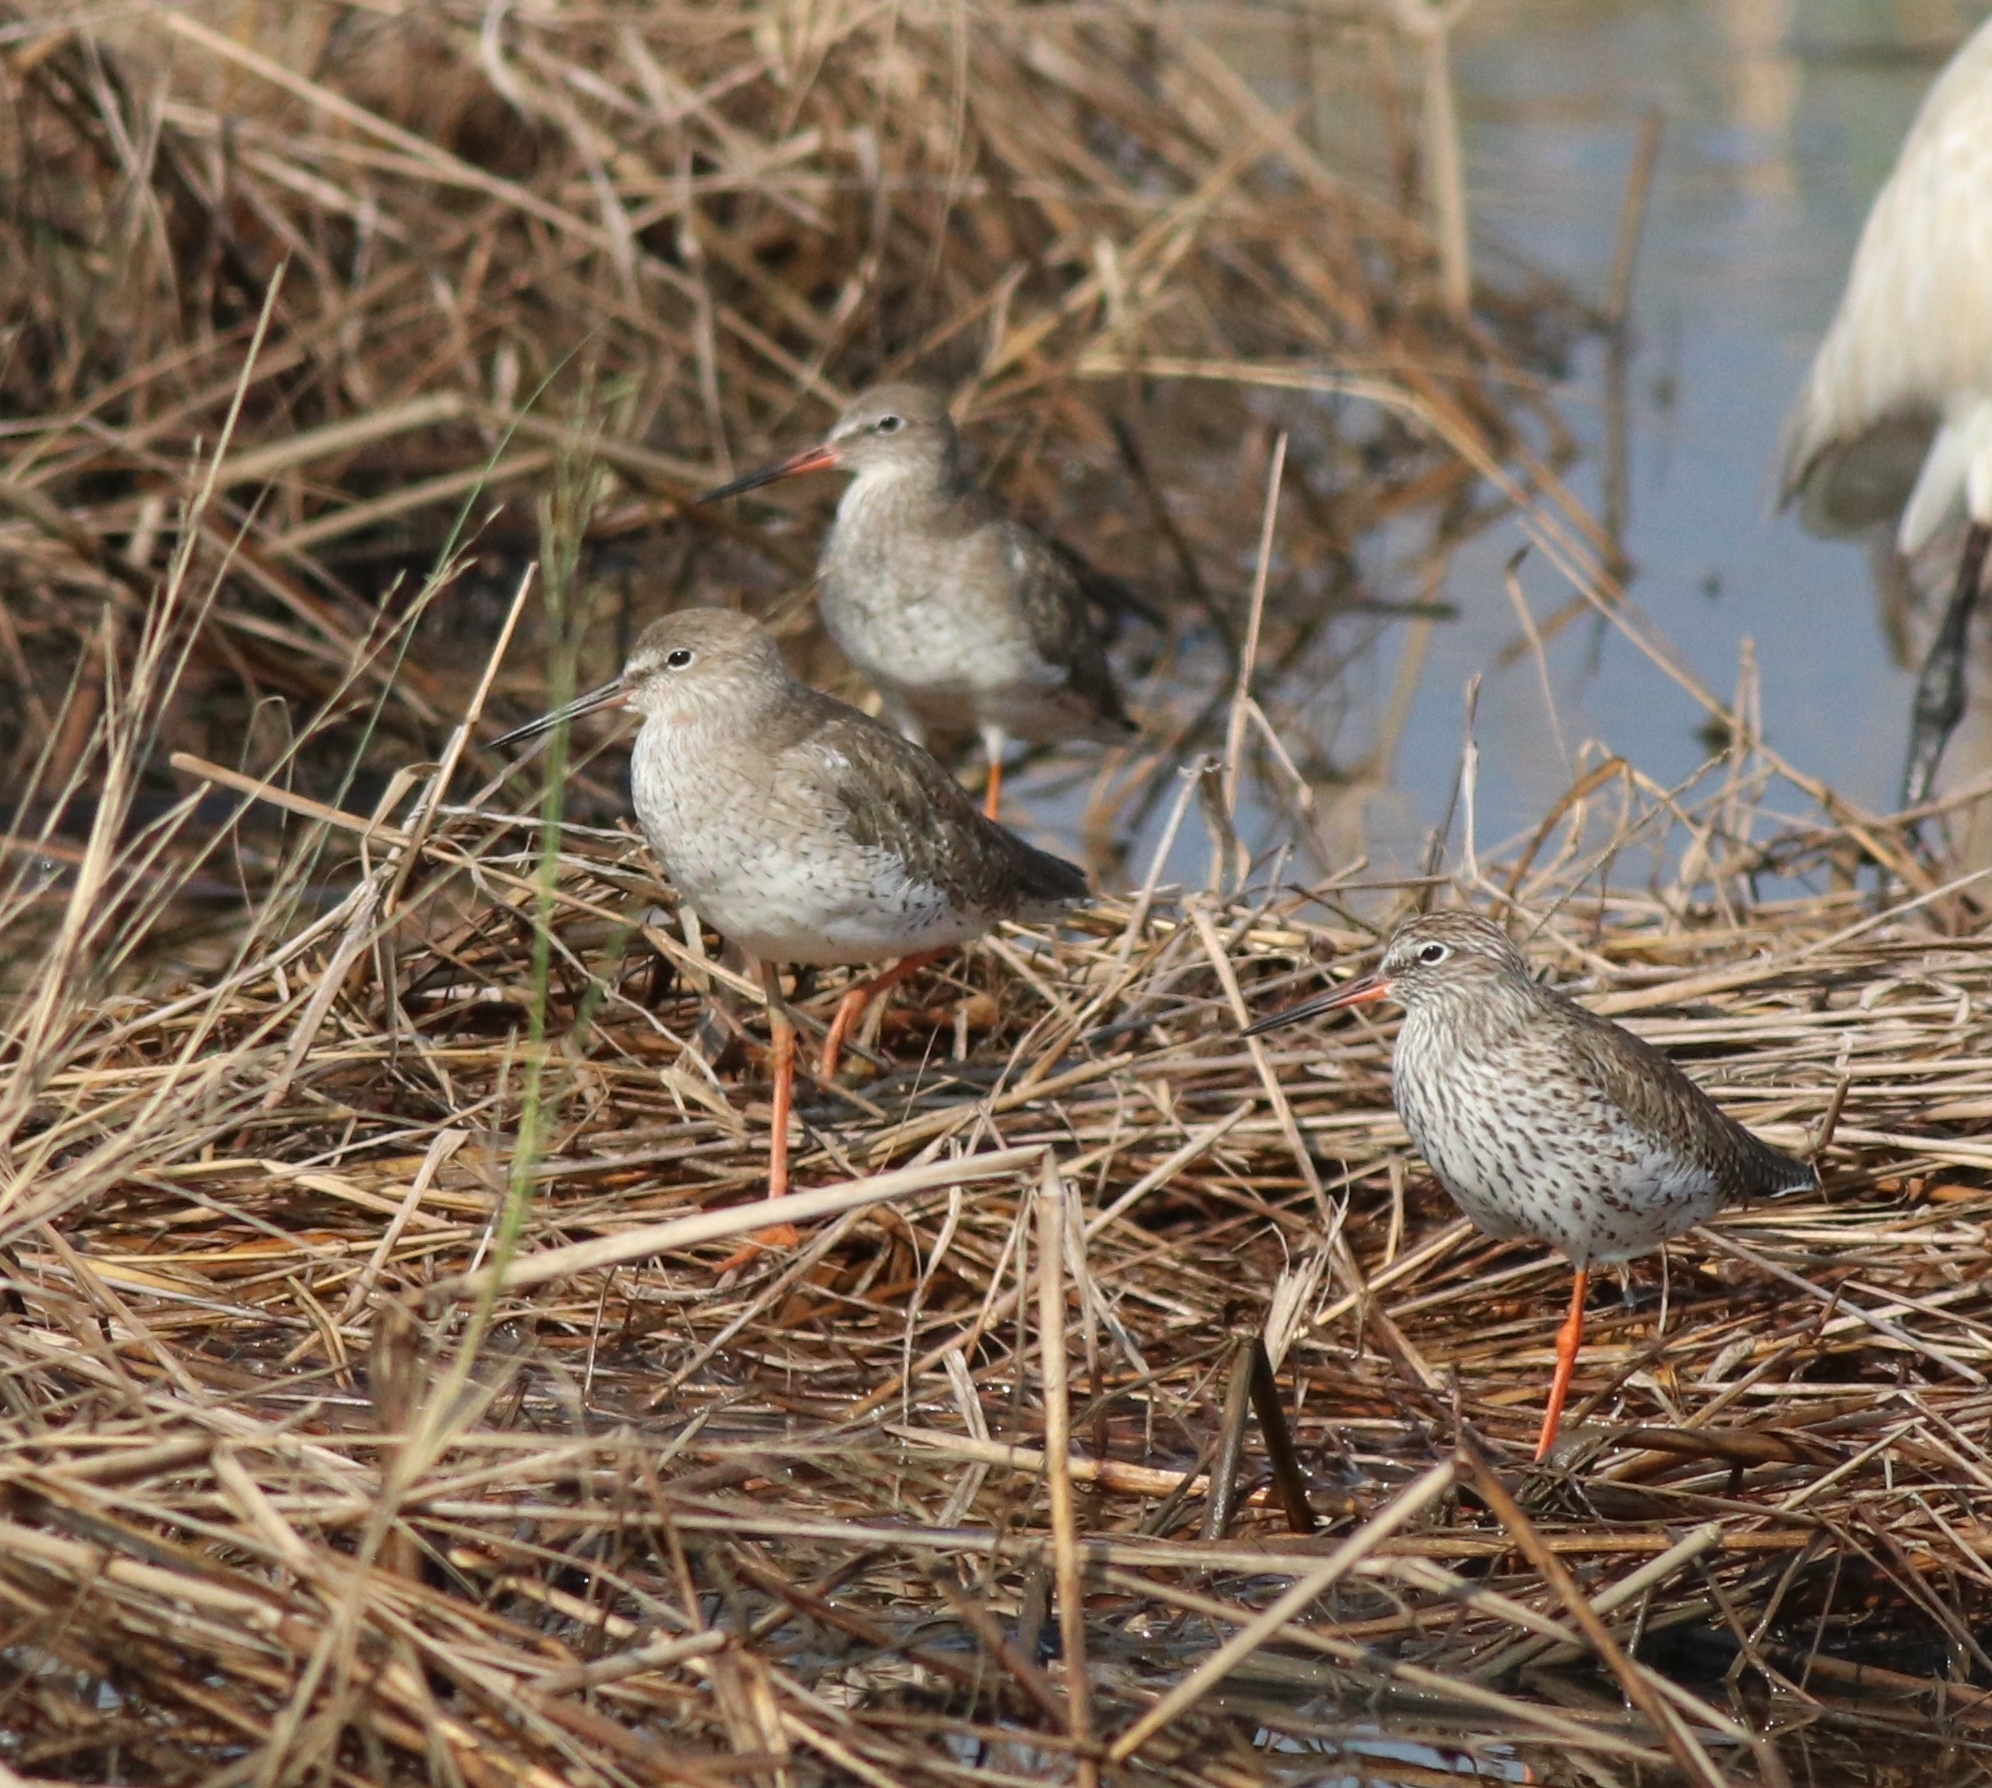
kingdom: Animalia
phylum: Chordata
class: Aves
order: Charadriiformes
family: Scolopacidae
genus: Tringa
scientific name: Tringa totanus
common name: Common redshank
